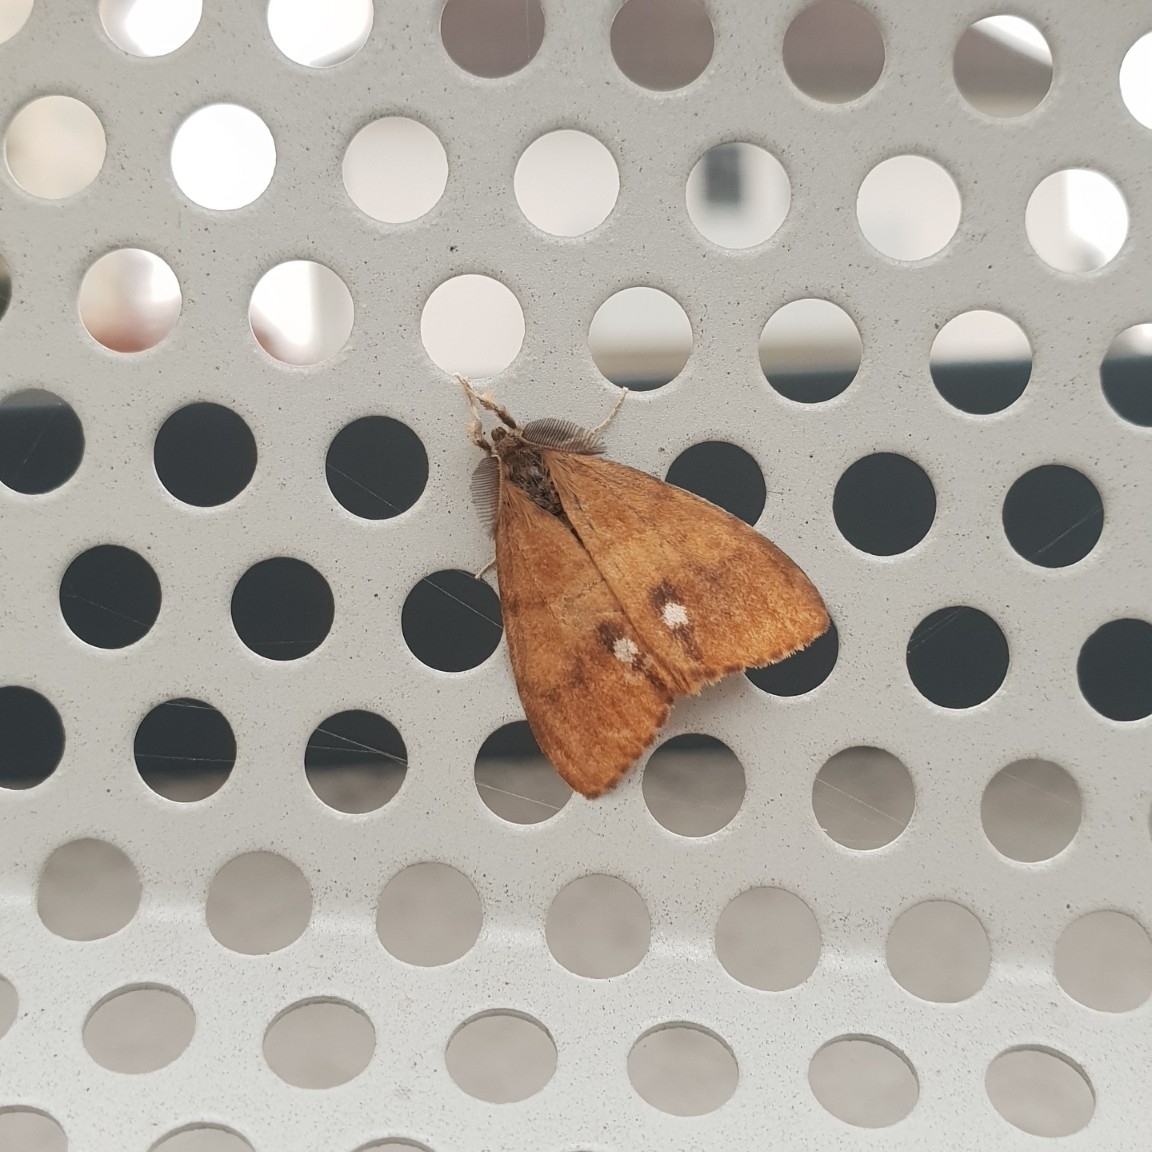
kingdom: Animalia
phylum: Arthropoda
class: Insecta
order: Lepidoptera
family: Erebidae
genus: Orgyia
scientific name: Orgyia antiqua
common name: Vapourer
